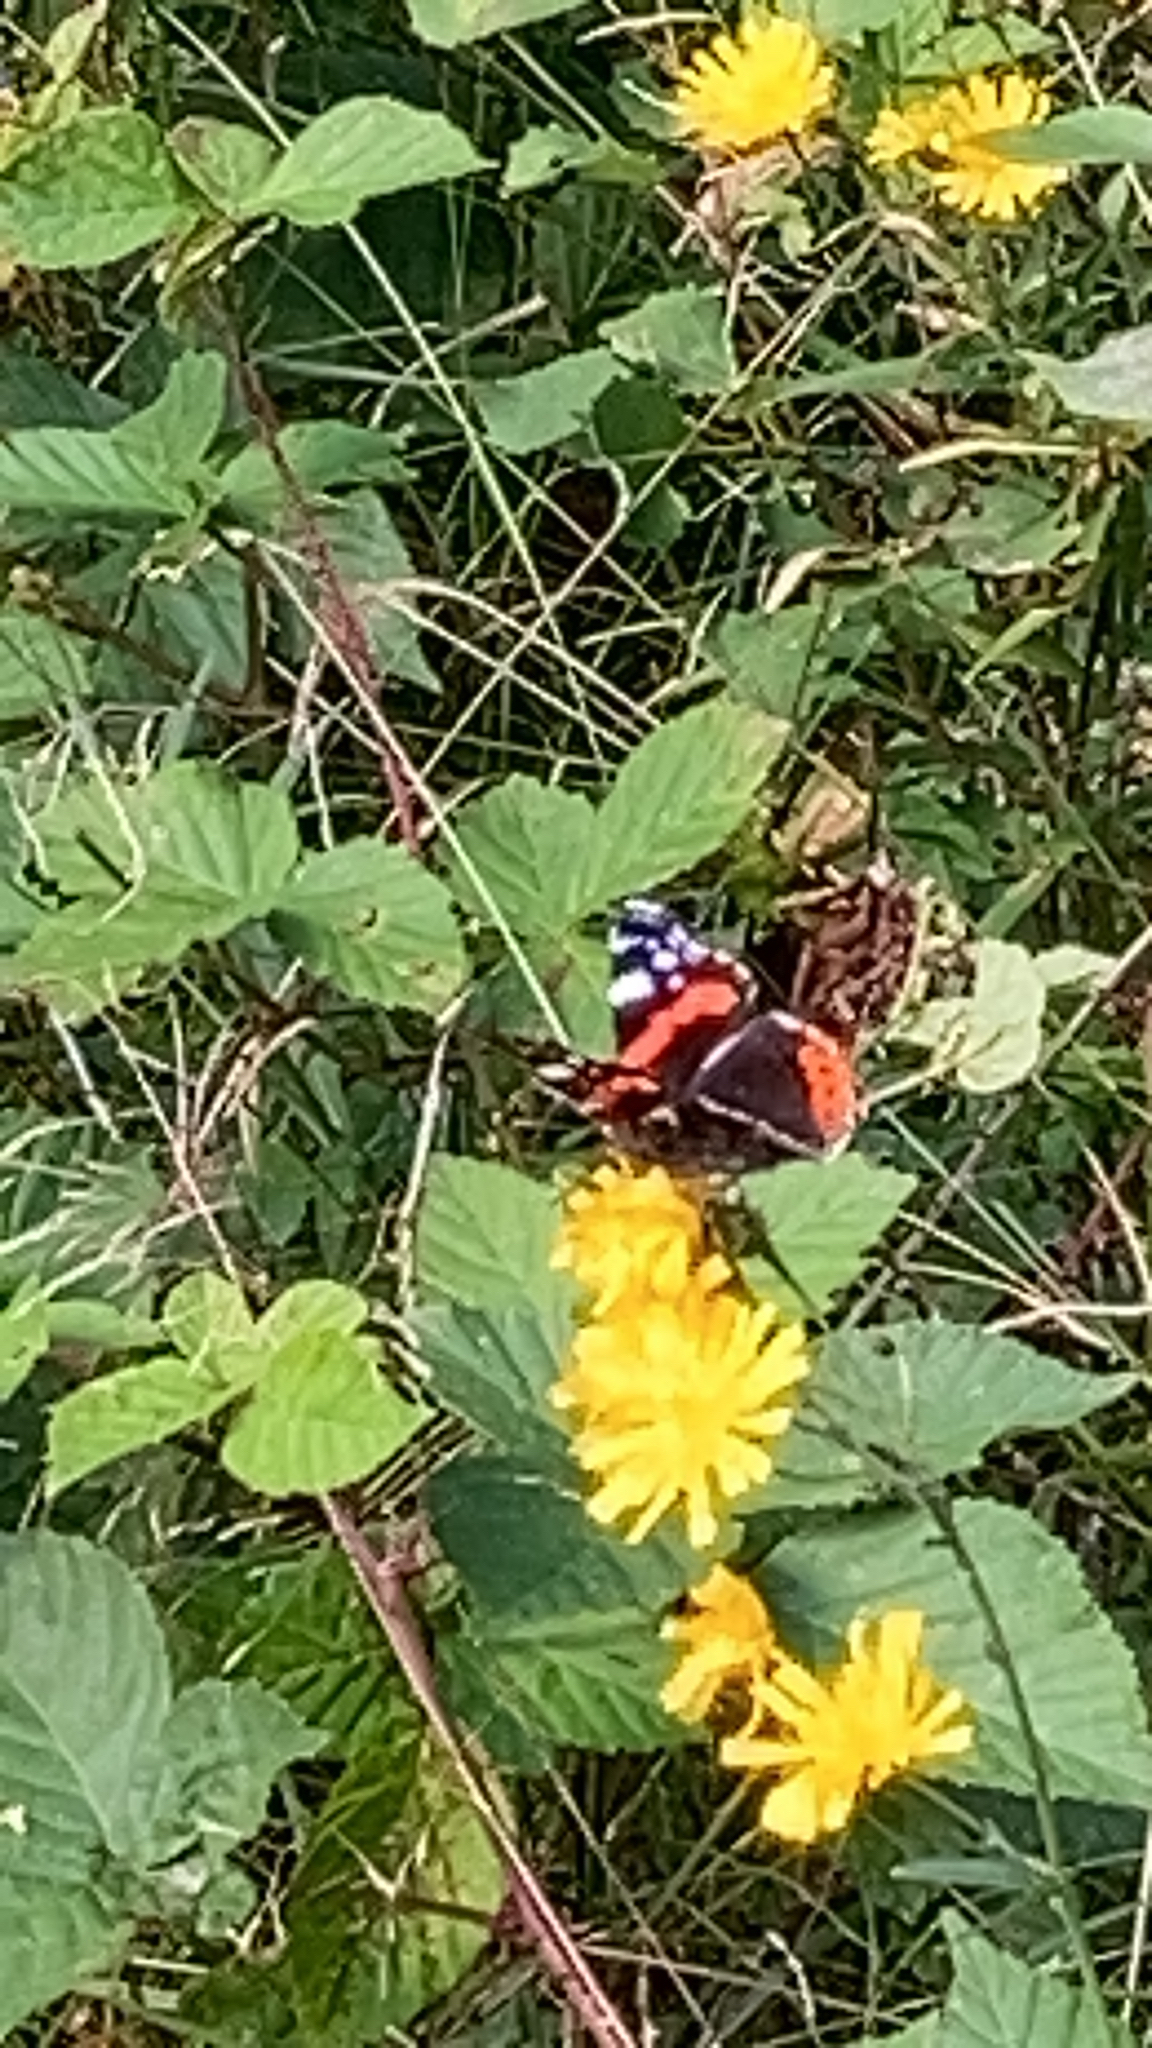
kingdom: Animalia
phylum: Arthropoda
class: Insecta
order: Lepidoptera
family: Nymphalidae
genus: Vanessa
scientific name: Vanessa atalanta
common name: Red admiral
